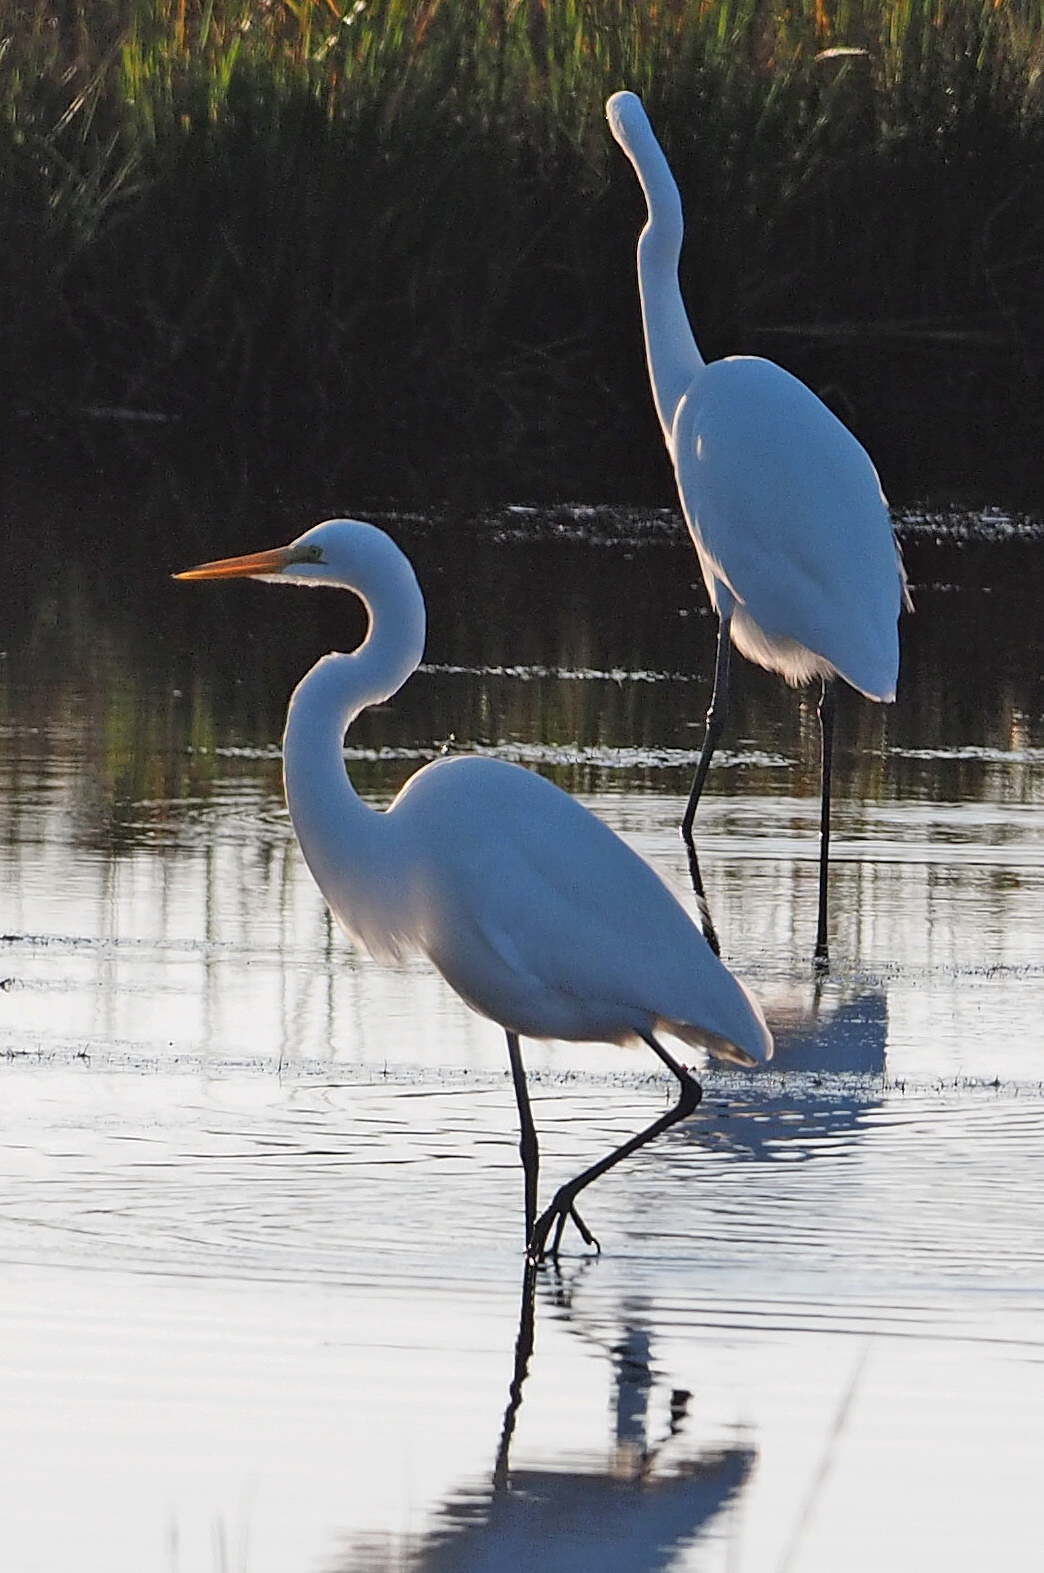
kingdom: Animalia
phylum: Chordata
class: Aves
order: Pelecaniformes
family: Ardeidae
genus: Ardea
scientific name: Ardea alba
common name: Great egret
